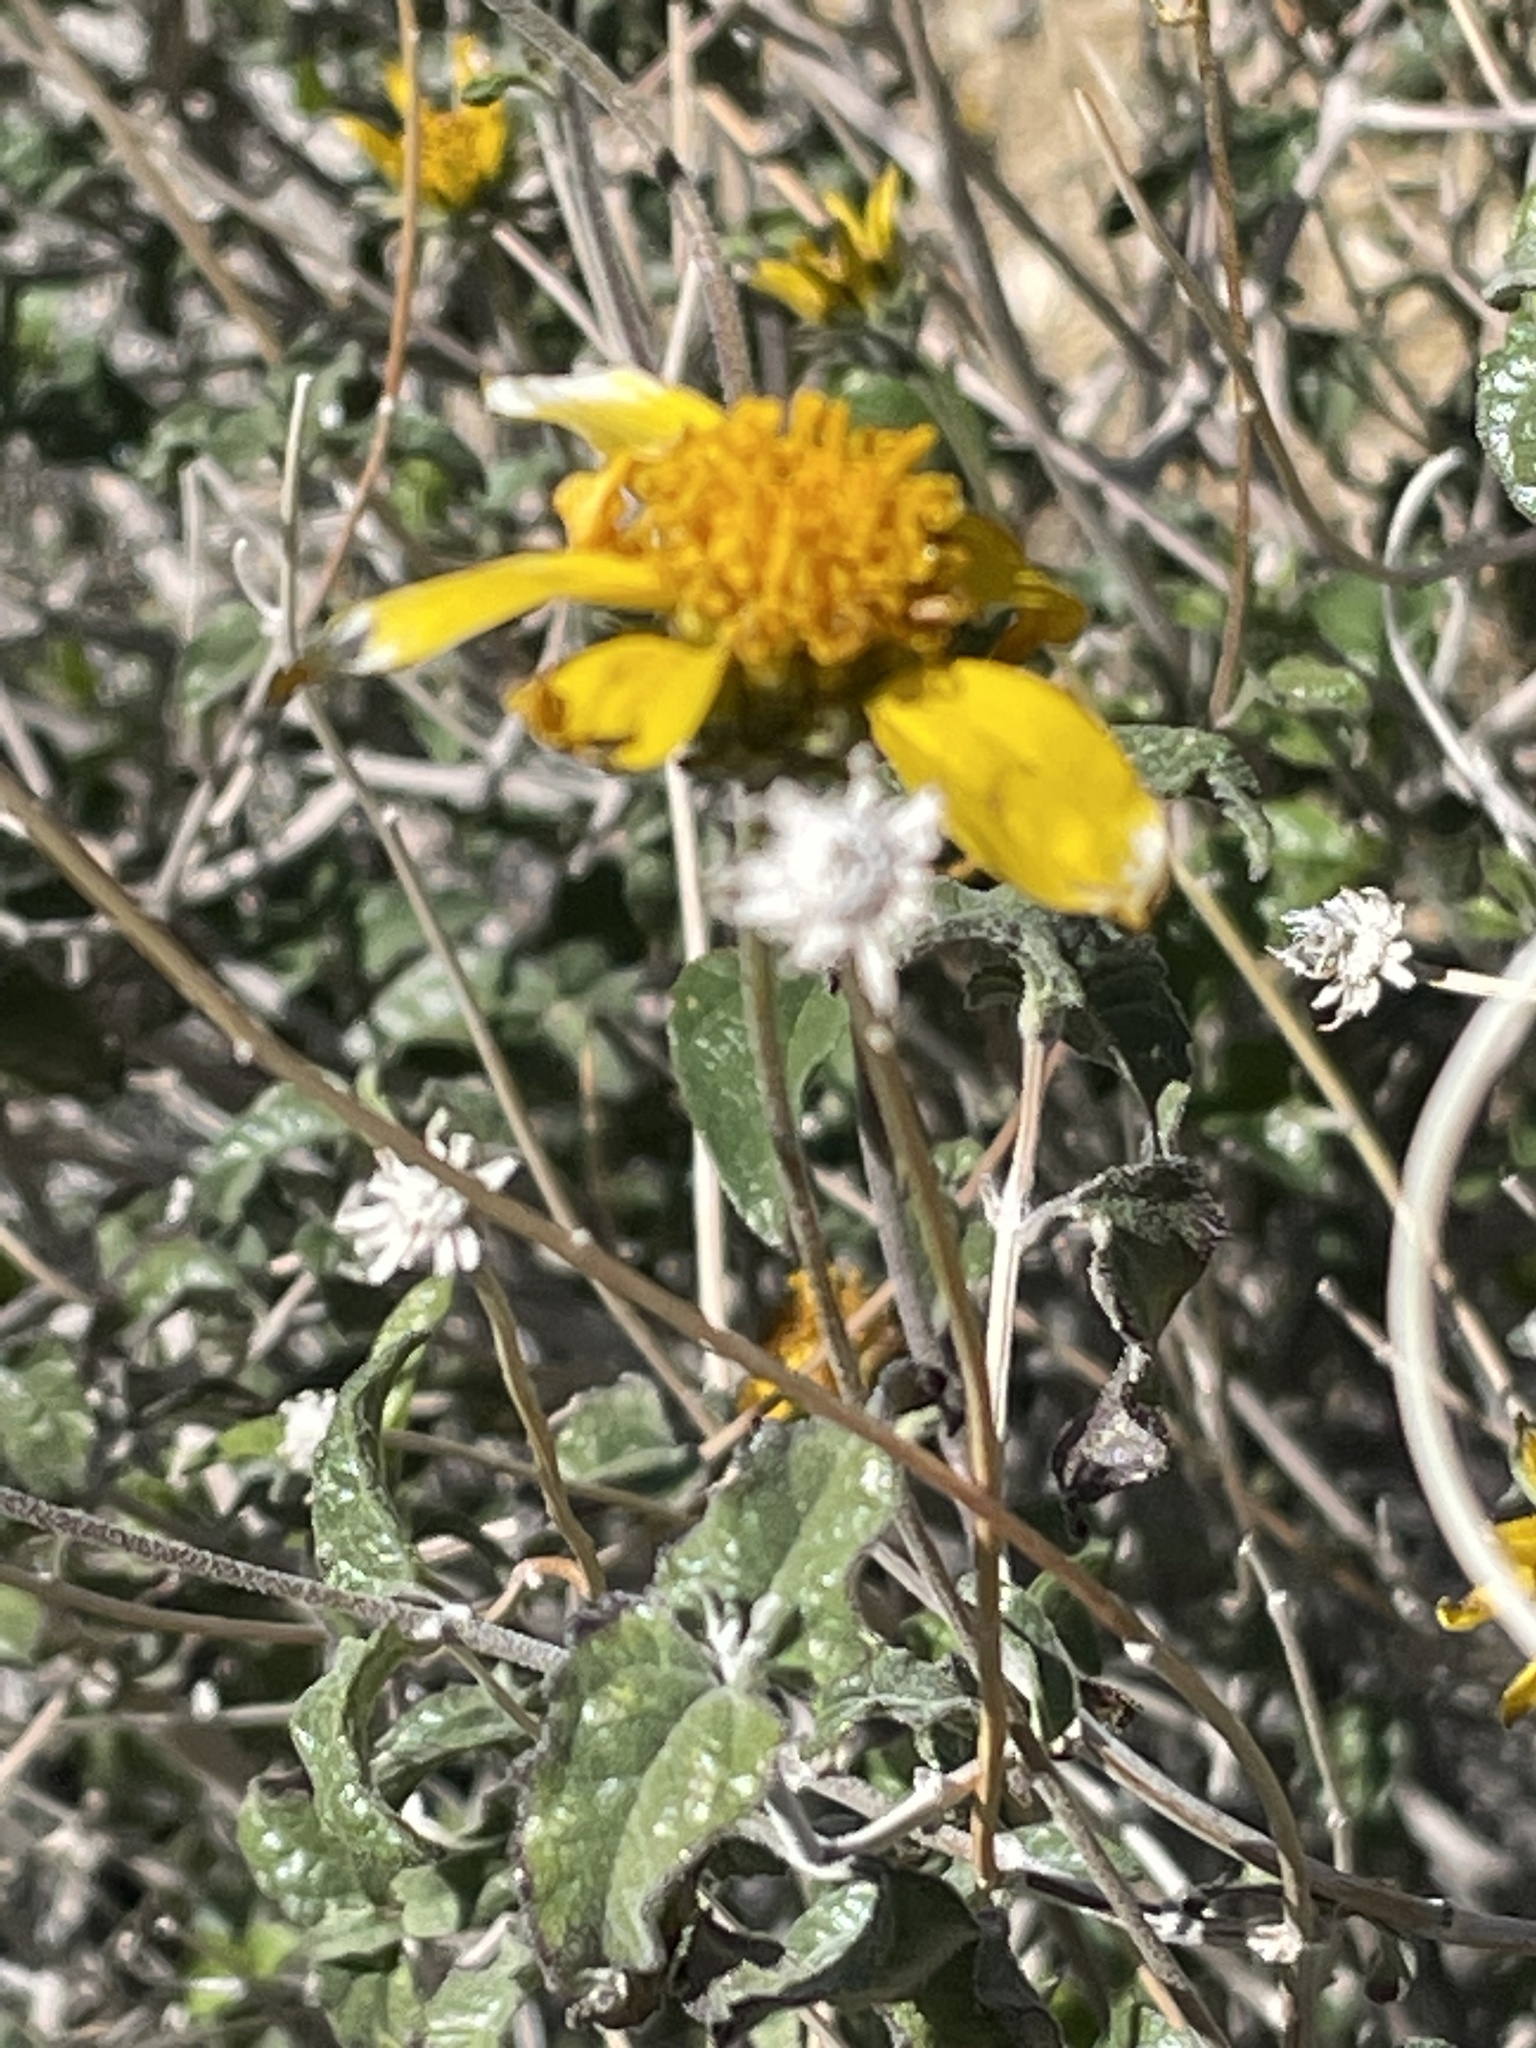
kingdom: Plantae
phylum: Tracheophyta
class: Magnoliopsida
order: Asterales
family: Asteraceae
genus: Bahiopsis
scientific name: Bahiopsis parishii
